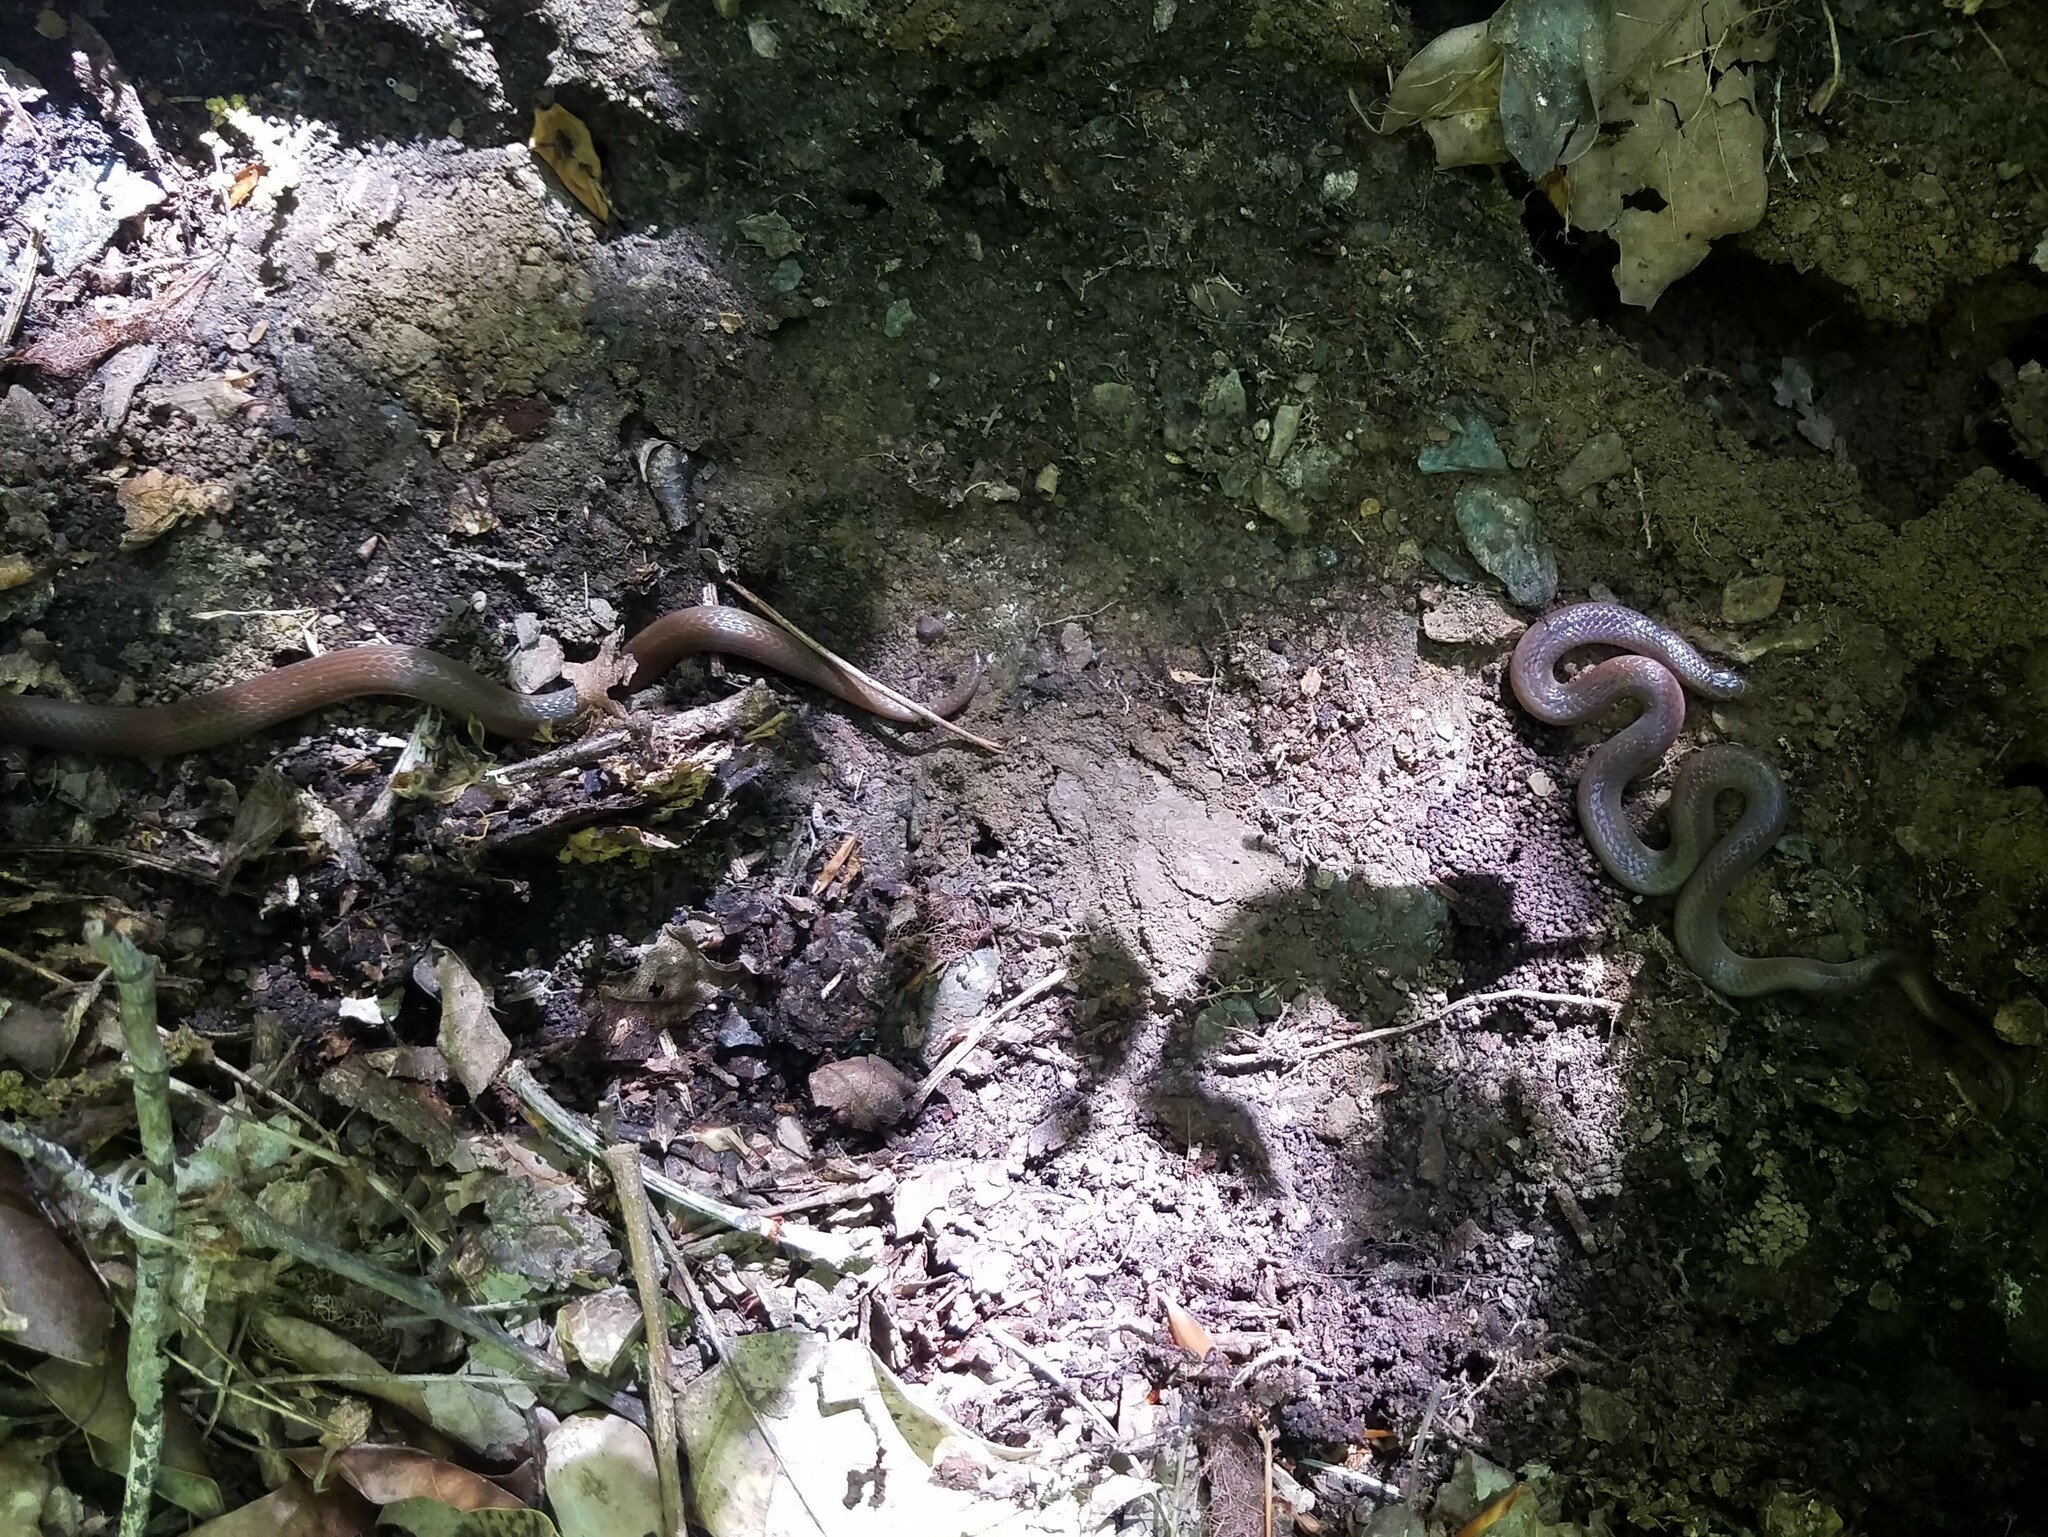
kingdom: Animalia
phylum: Chordata
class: Squamata
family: Colubridae
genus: Carphophis
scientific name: Carphophis amoenus
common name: Eastern worm snake
